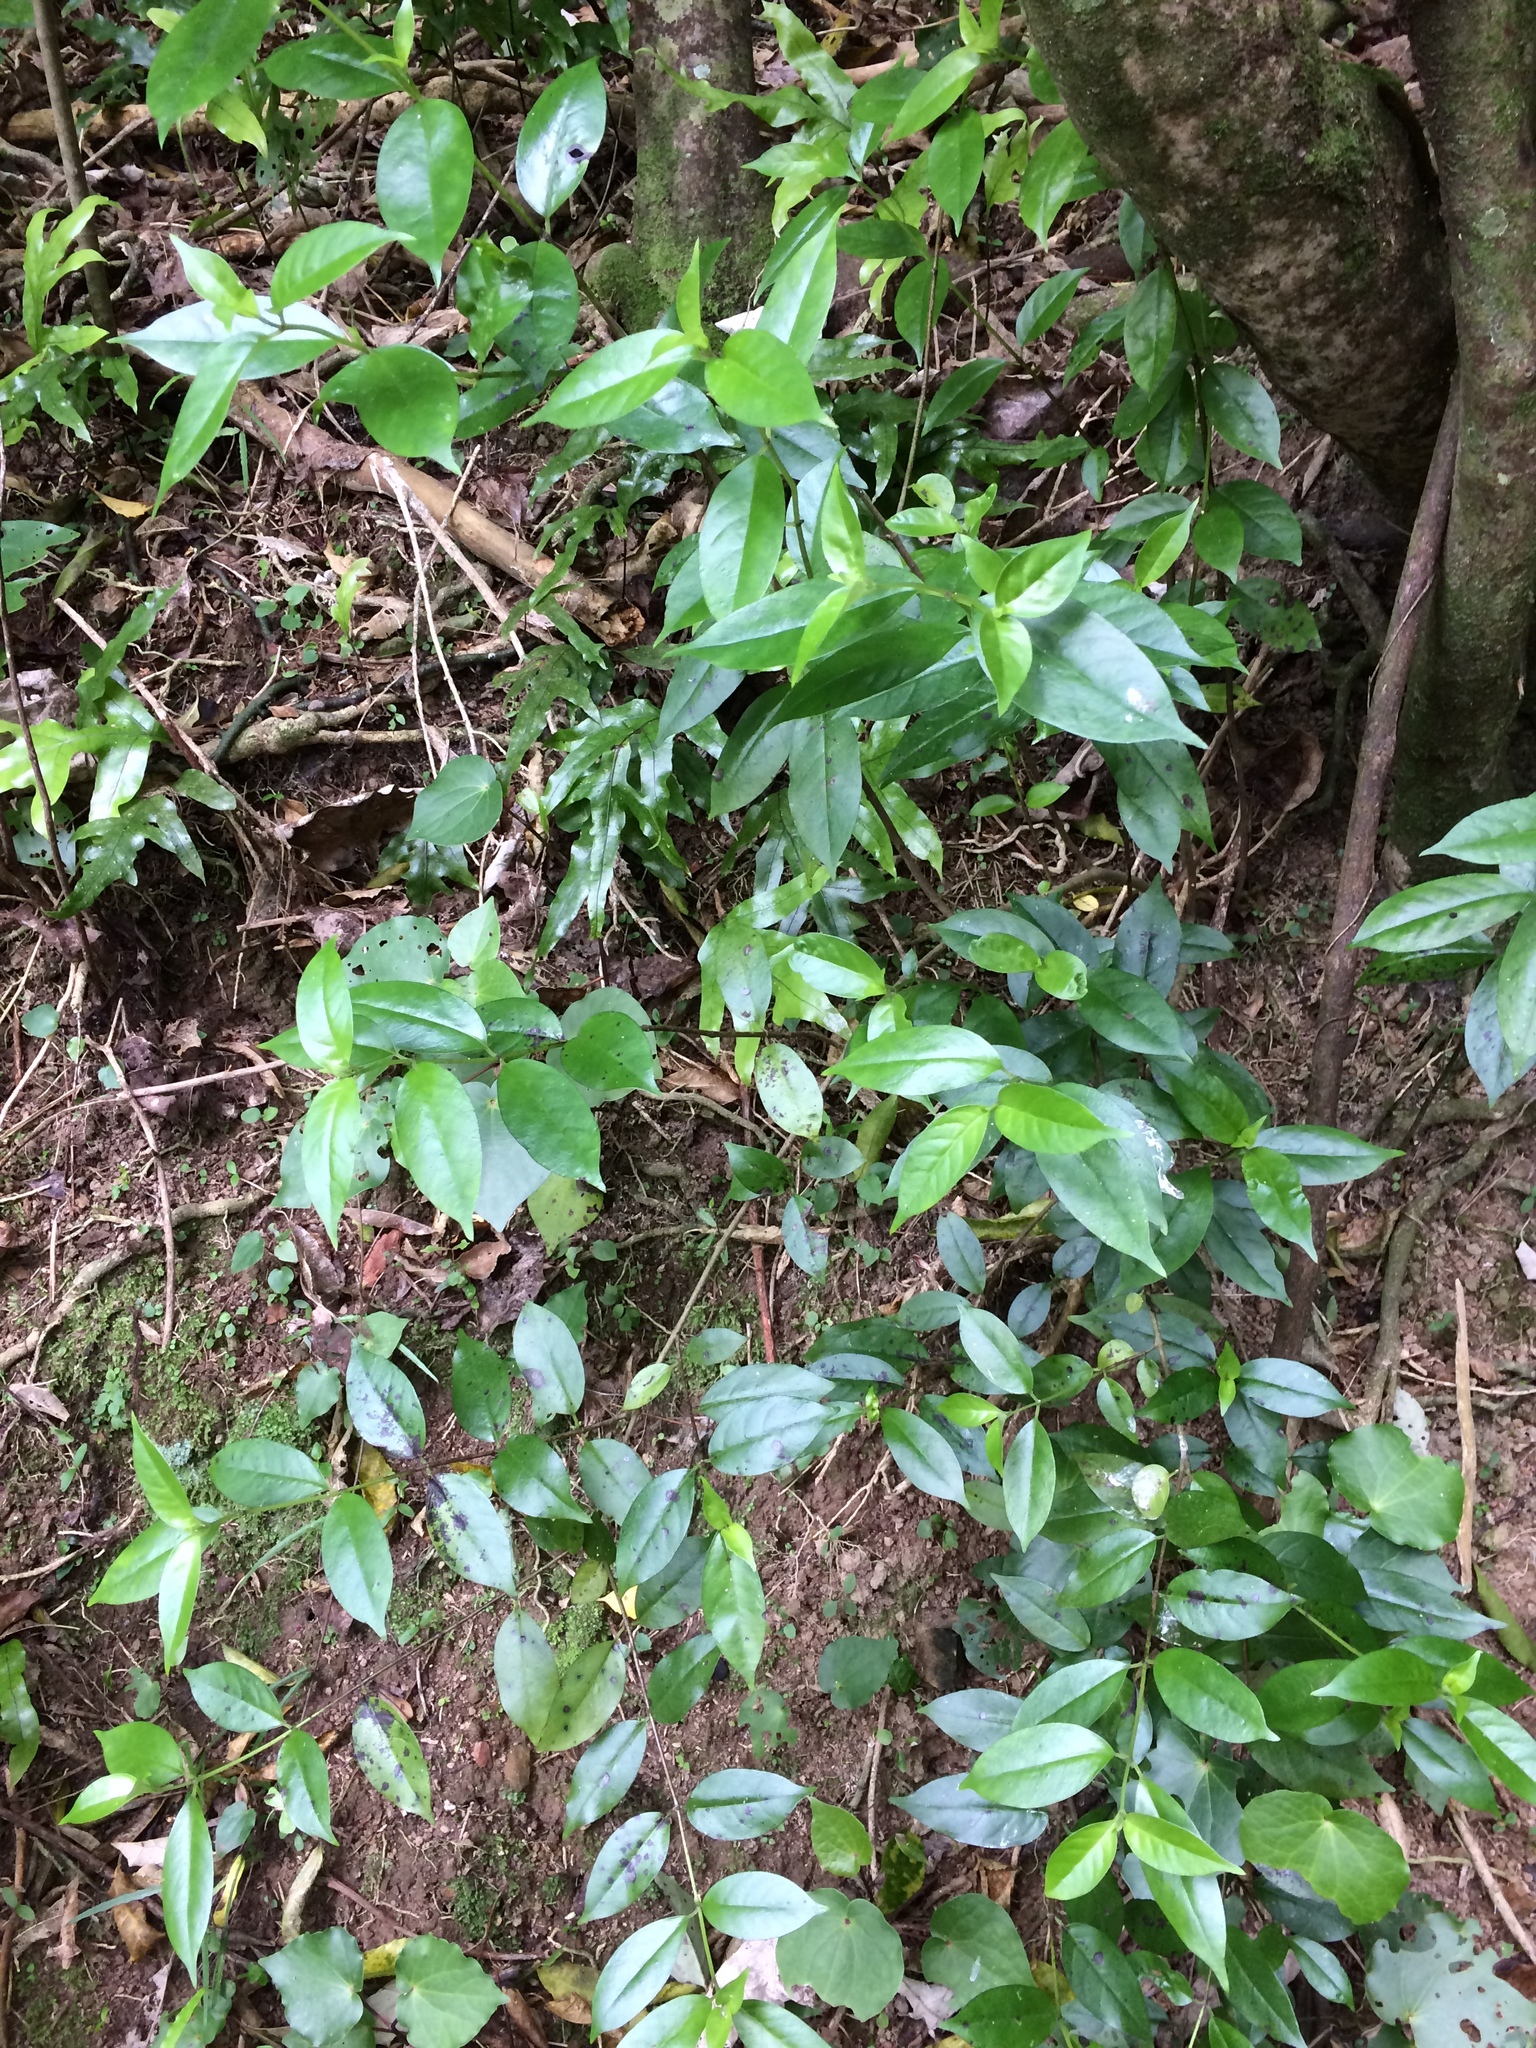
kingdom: Plantae
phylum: Tracheophyta
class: Magnoliopsida
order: Gentianales
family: Loganiaceae
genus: Geniostoma
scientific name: Geniostoma ligustrifolium
